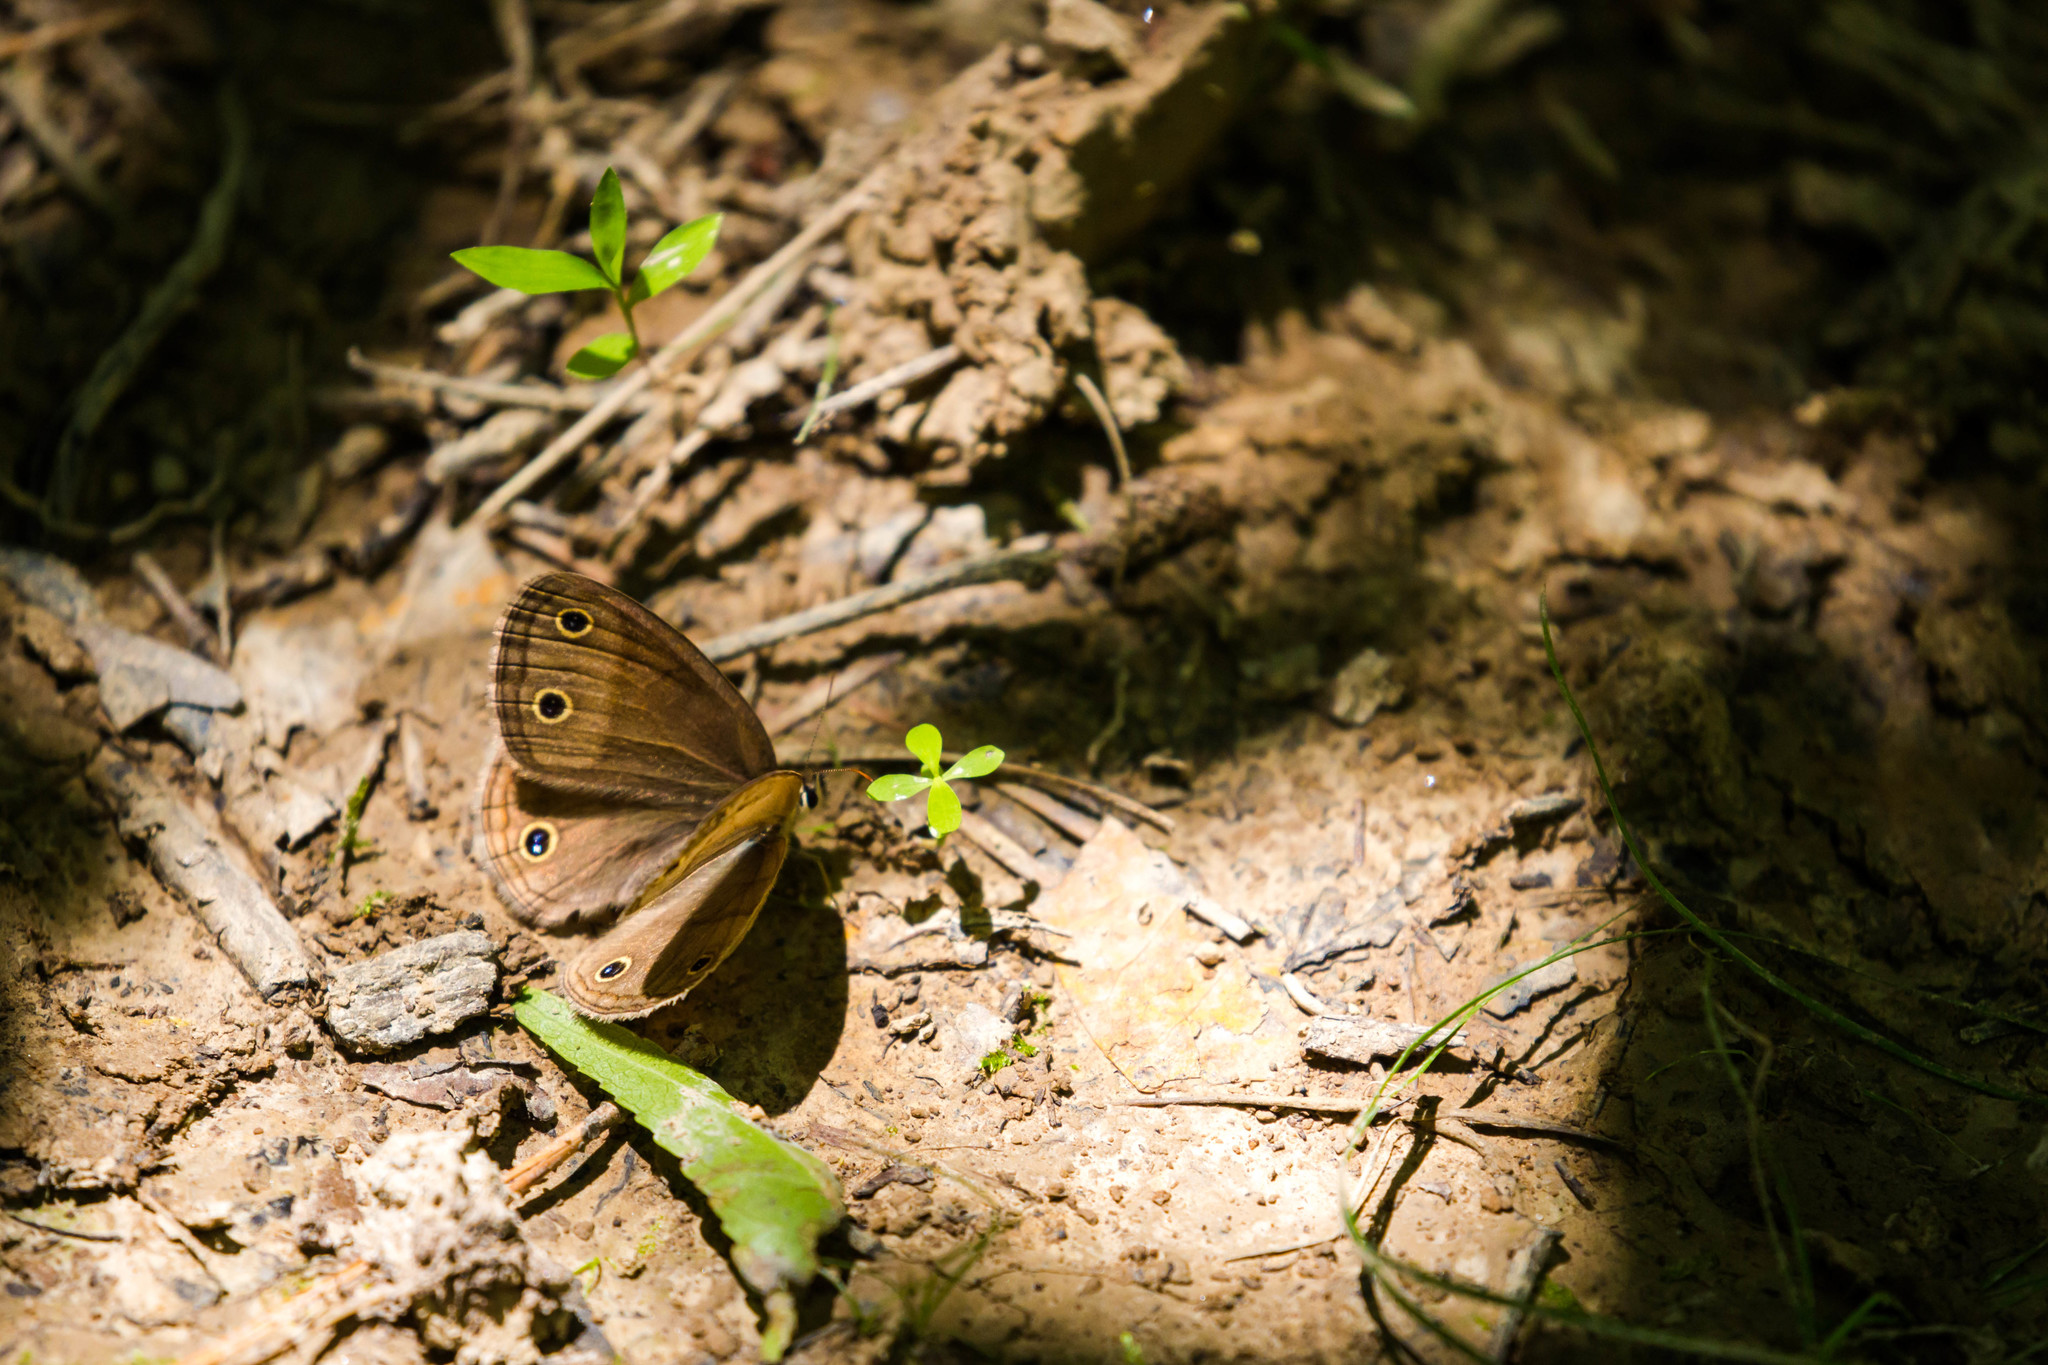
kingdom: Animalia
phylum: Arthropoda
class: Insecta
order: Lepidoptera
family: Nymphalidae
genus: Euptychia
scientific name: Euptychia cymela
